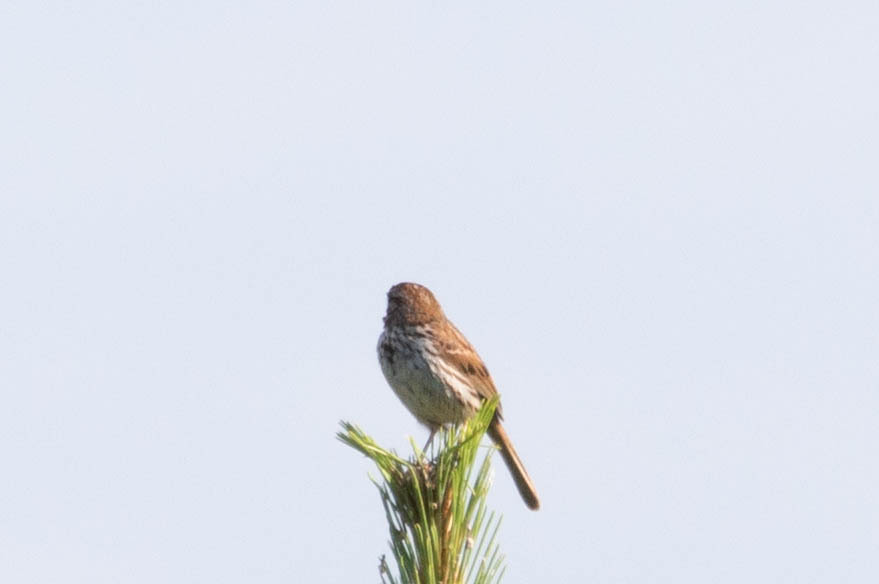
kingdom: Animalia
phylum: Chordata
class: Aves
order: Passeriformes
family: Passerellidae
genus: Melospiza
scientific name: Melospiza melodia
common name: Song sparrow
